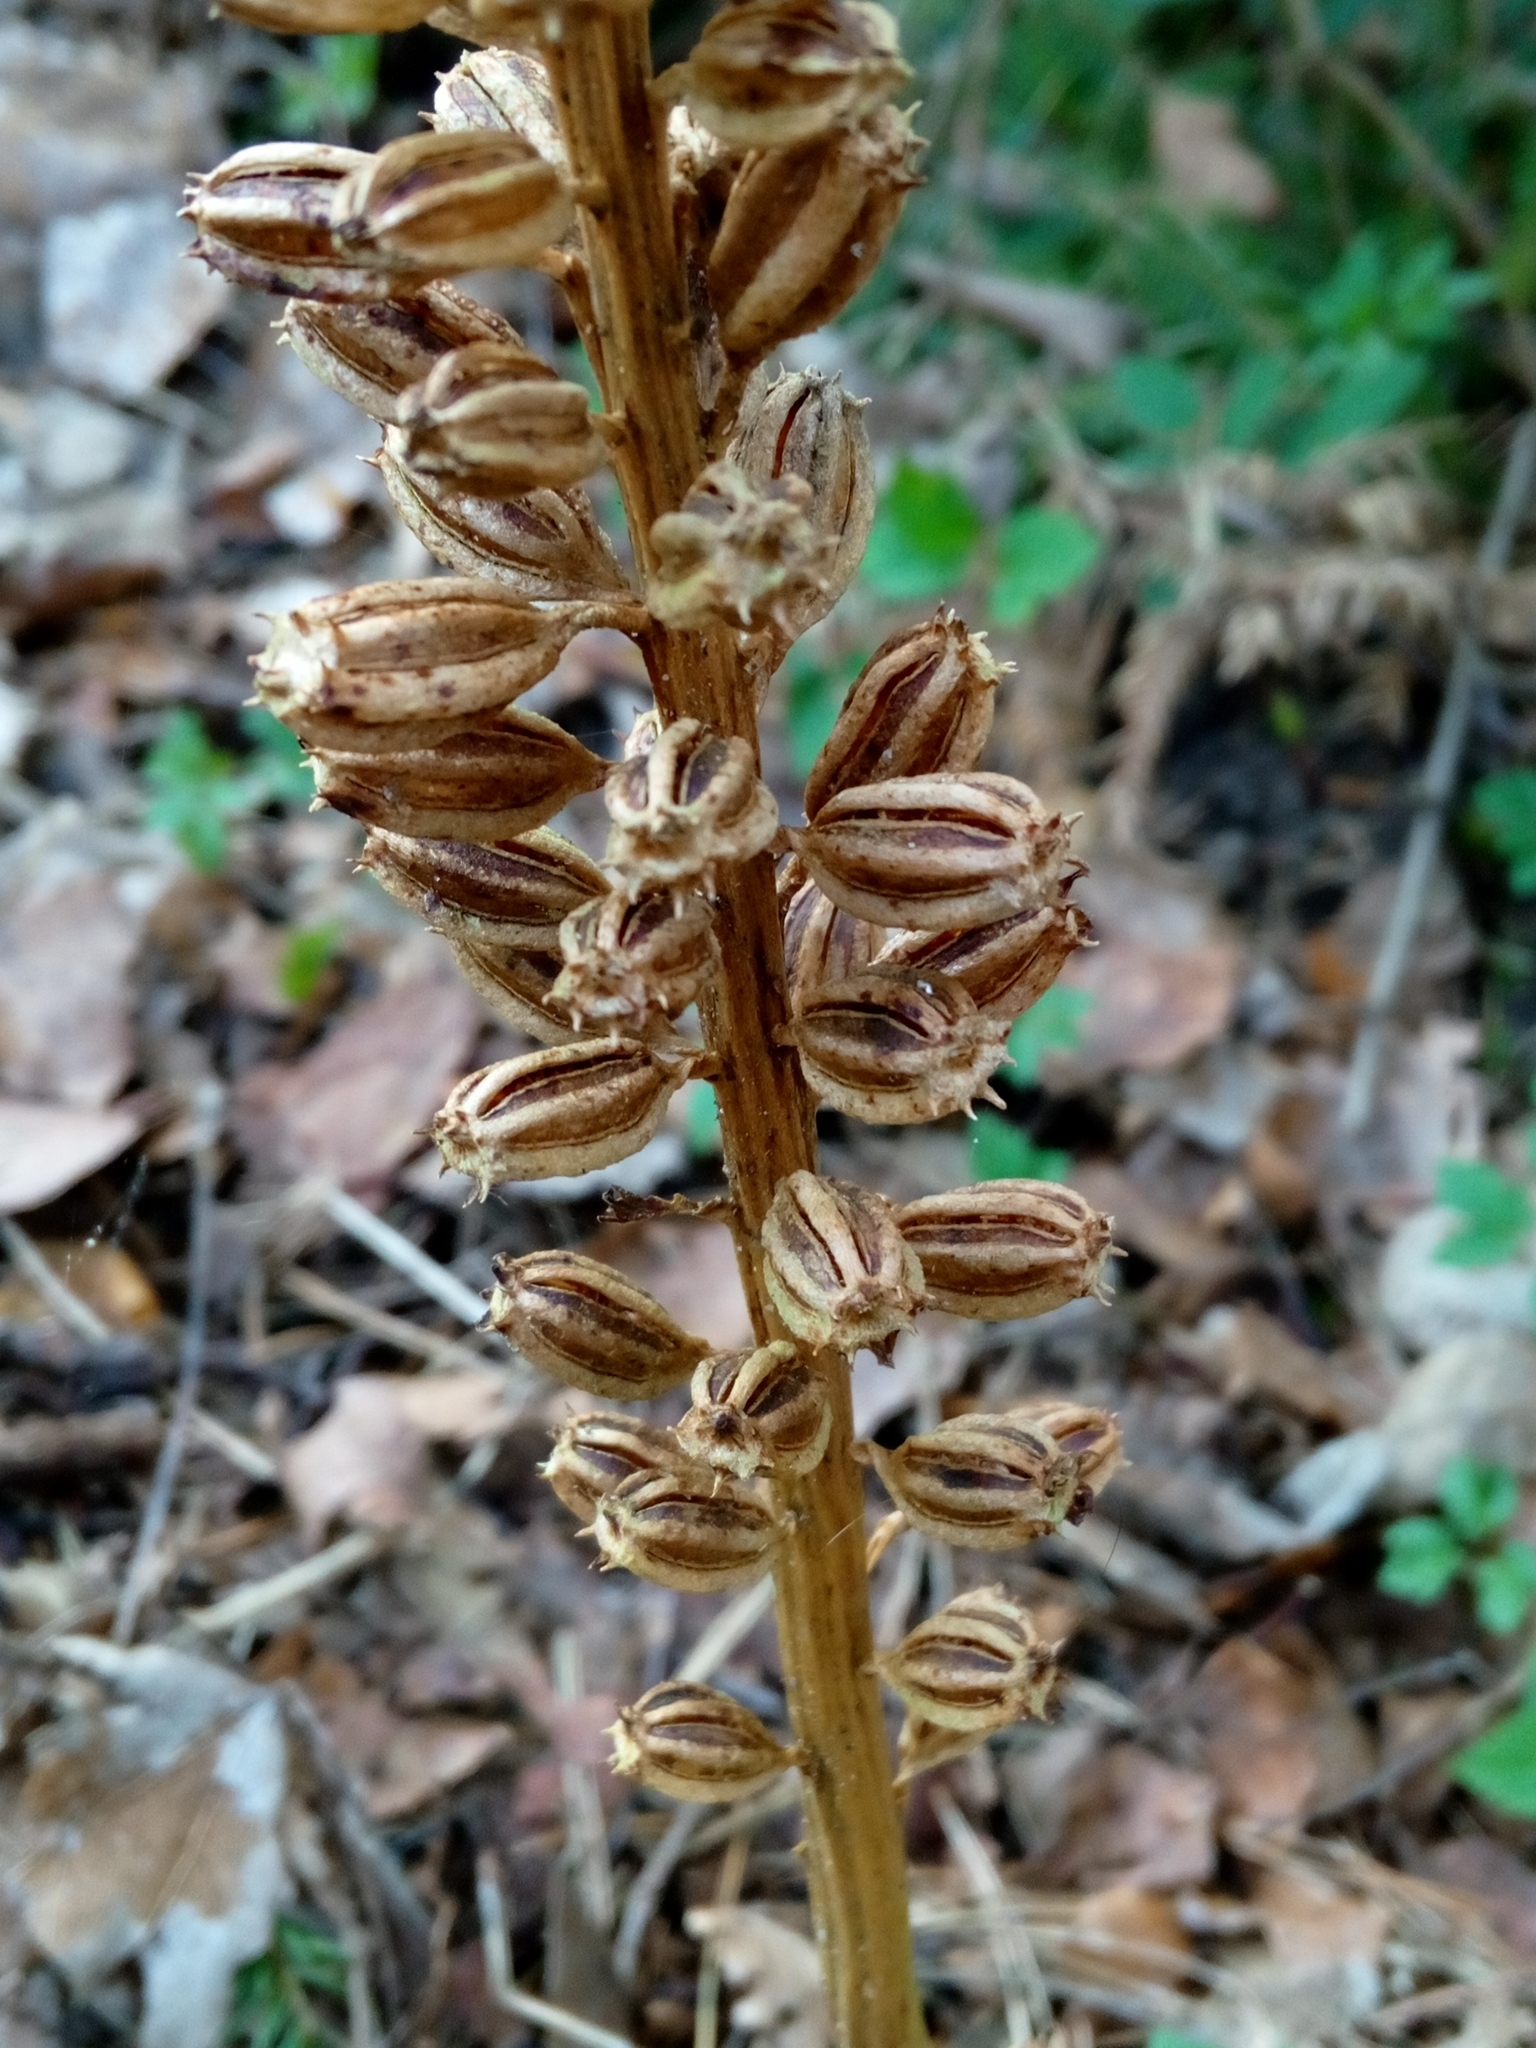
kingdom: Plantae
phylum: Tracheophyta
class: Liliopsida
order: Asparagales
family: Orchidaceae
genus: Neottia
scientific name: Neottia nidus-avis
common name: Bird's-nest orchid
